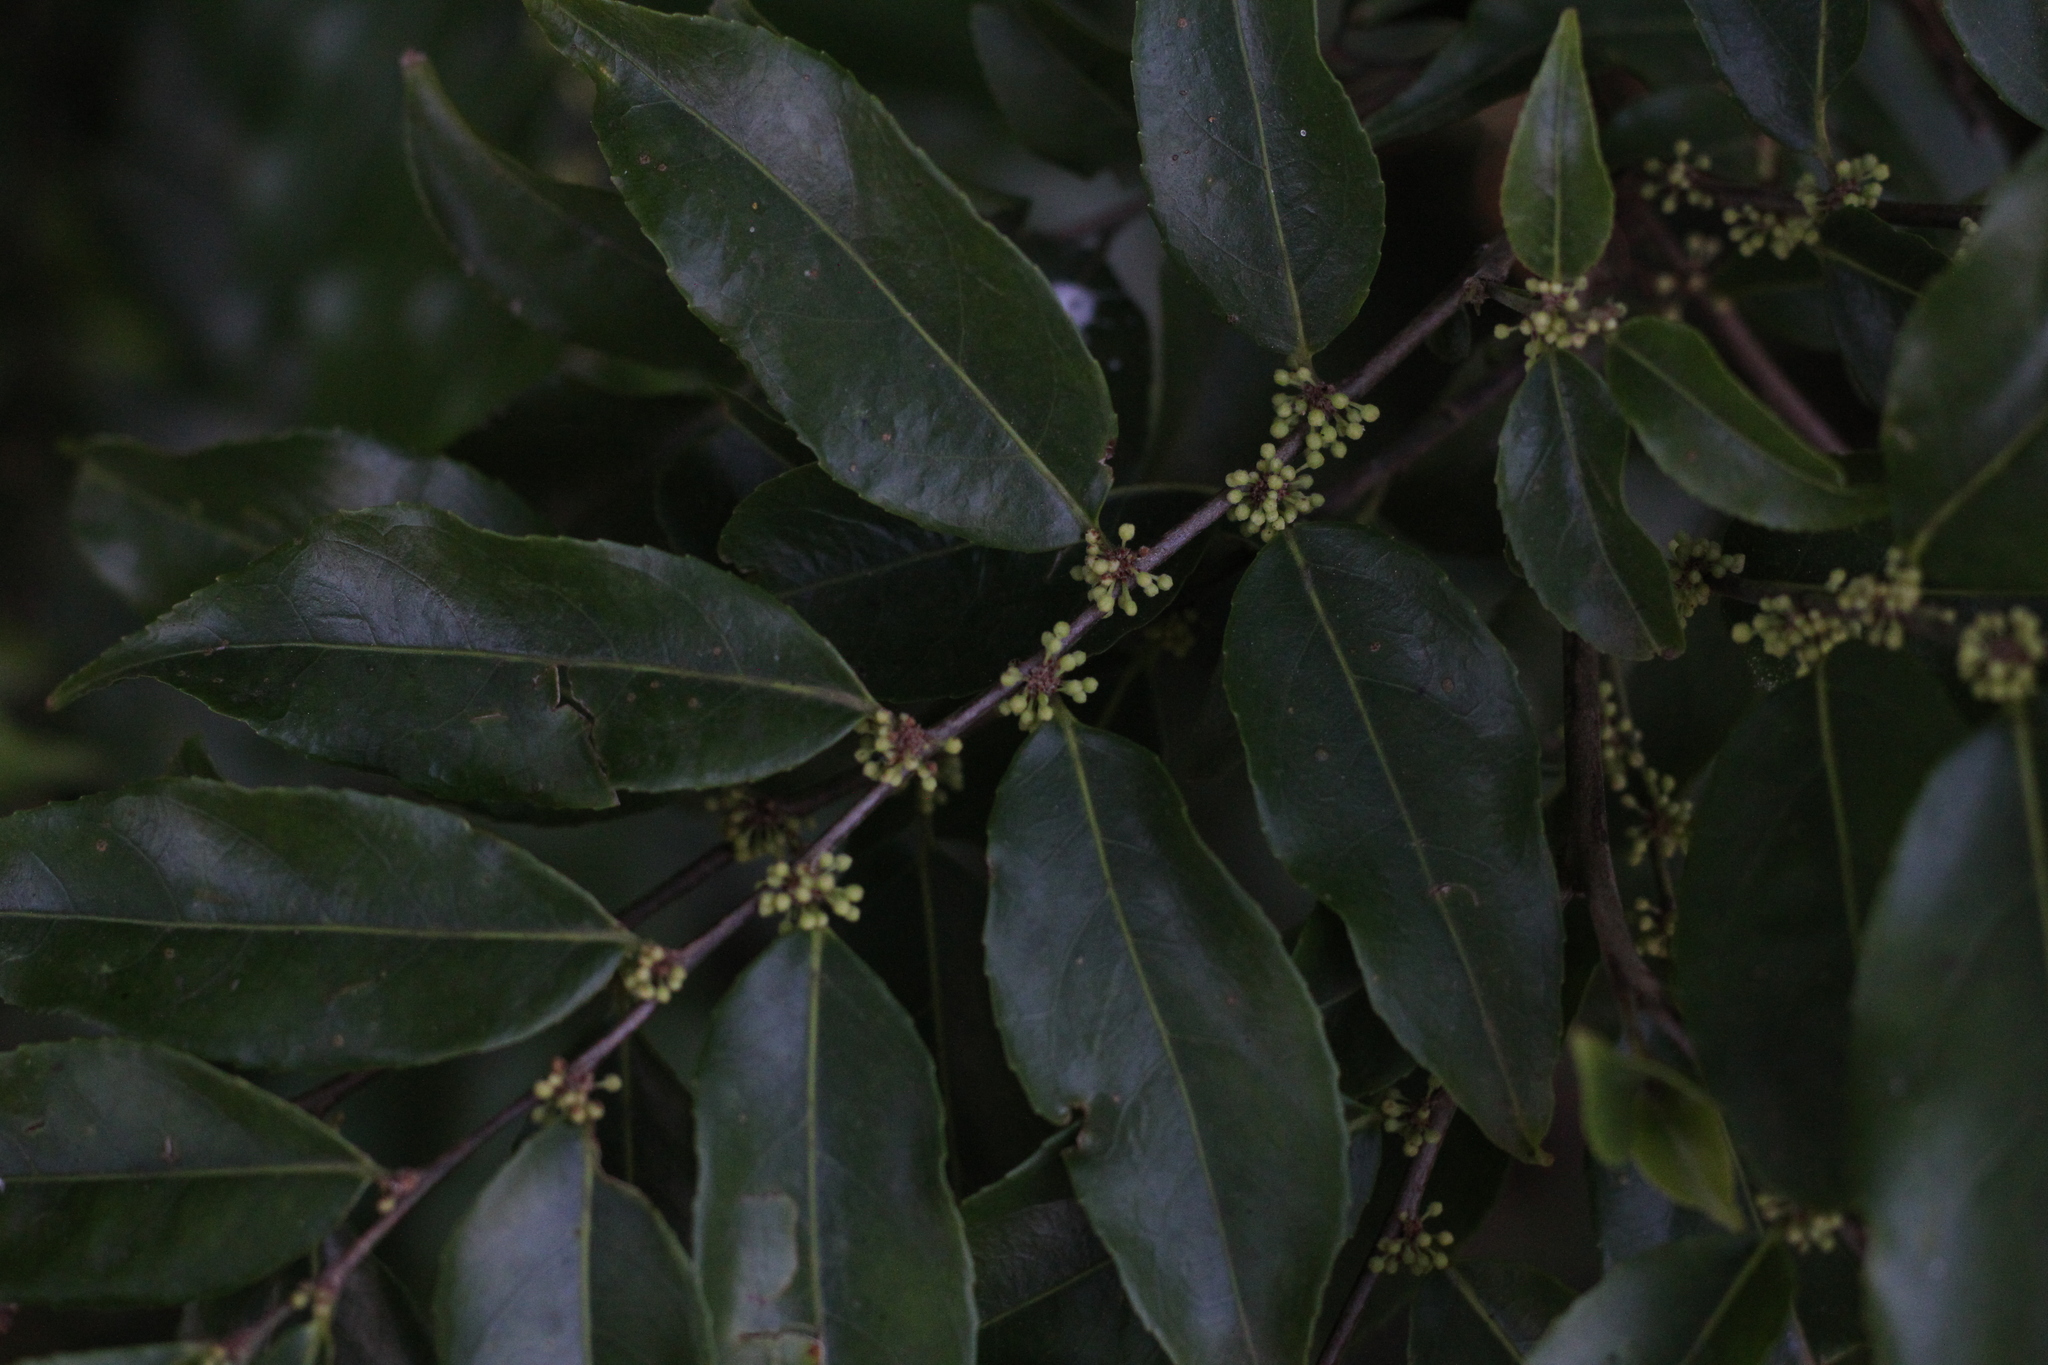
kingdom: Plantae
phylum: Tracheophyta
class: Magnoliopsida
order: Malpighiales
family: Salicaceae
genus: Casearia
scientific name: Casearia sylvestris
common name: Wild sage
